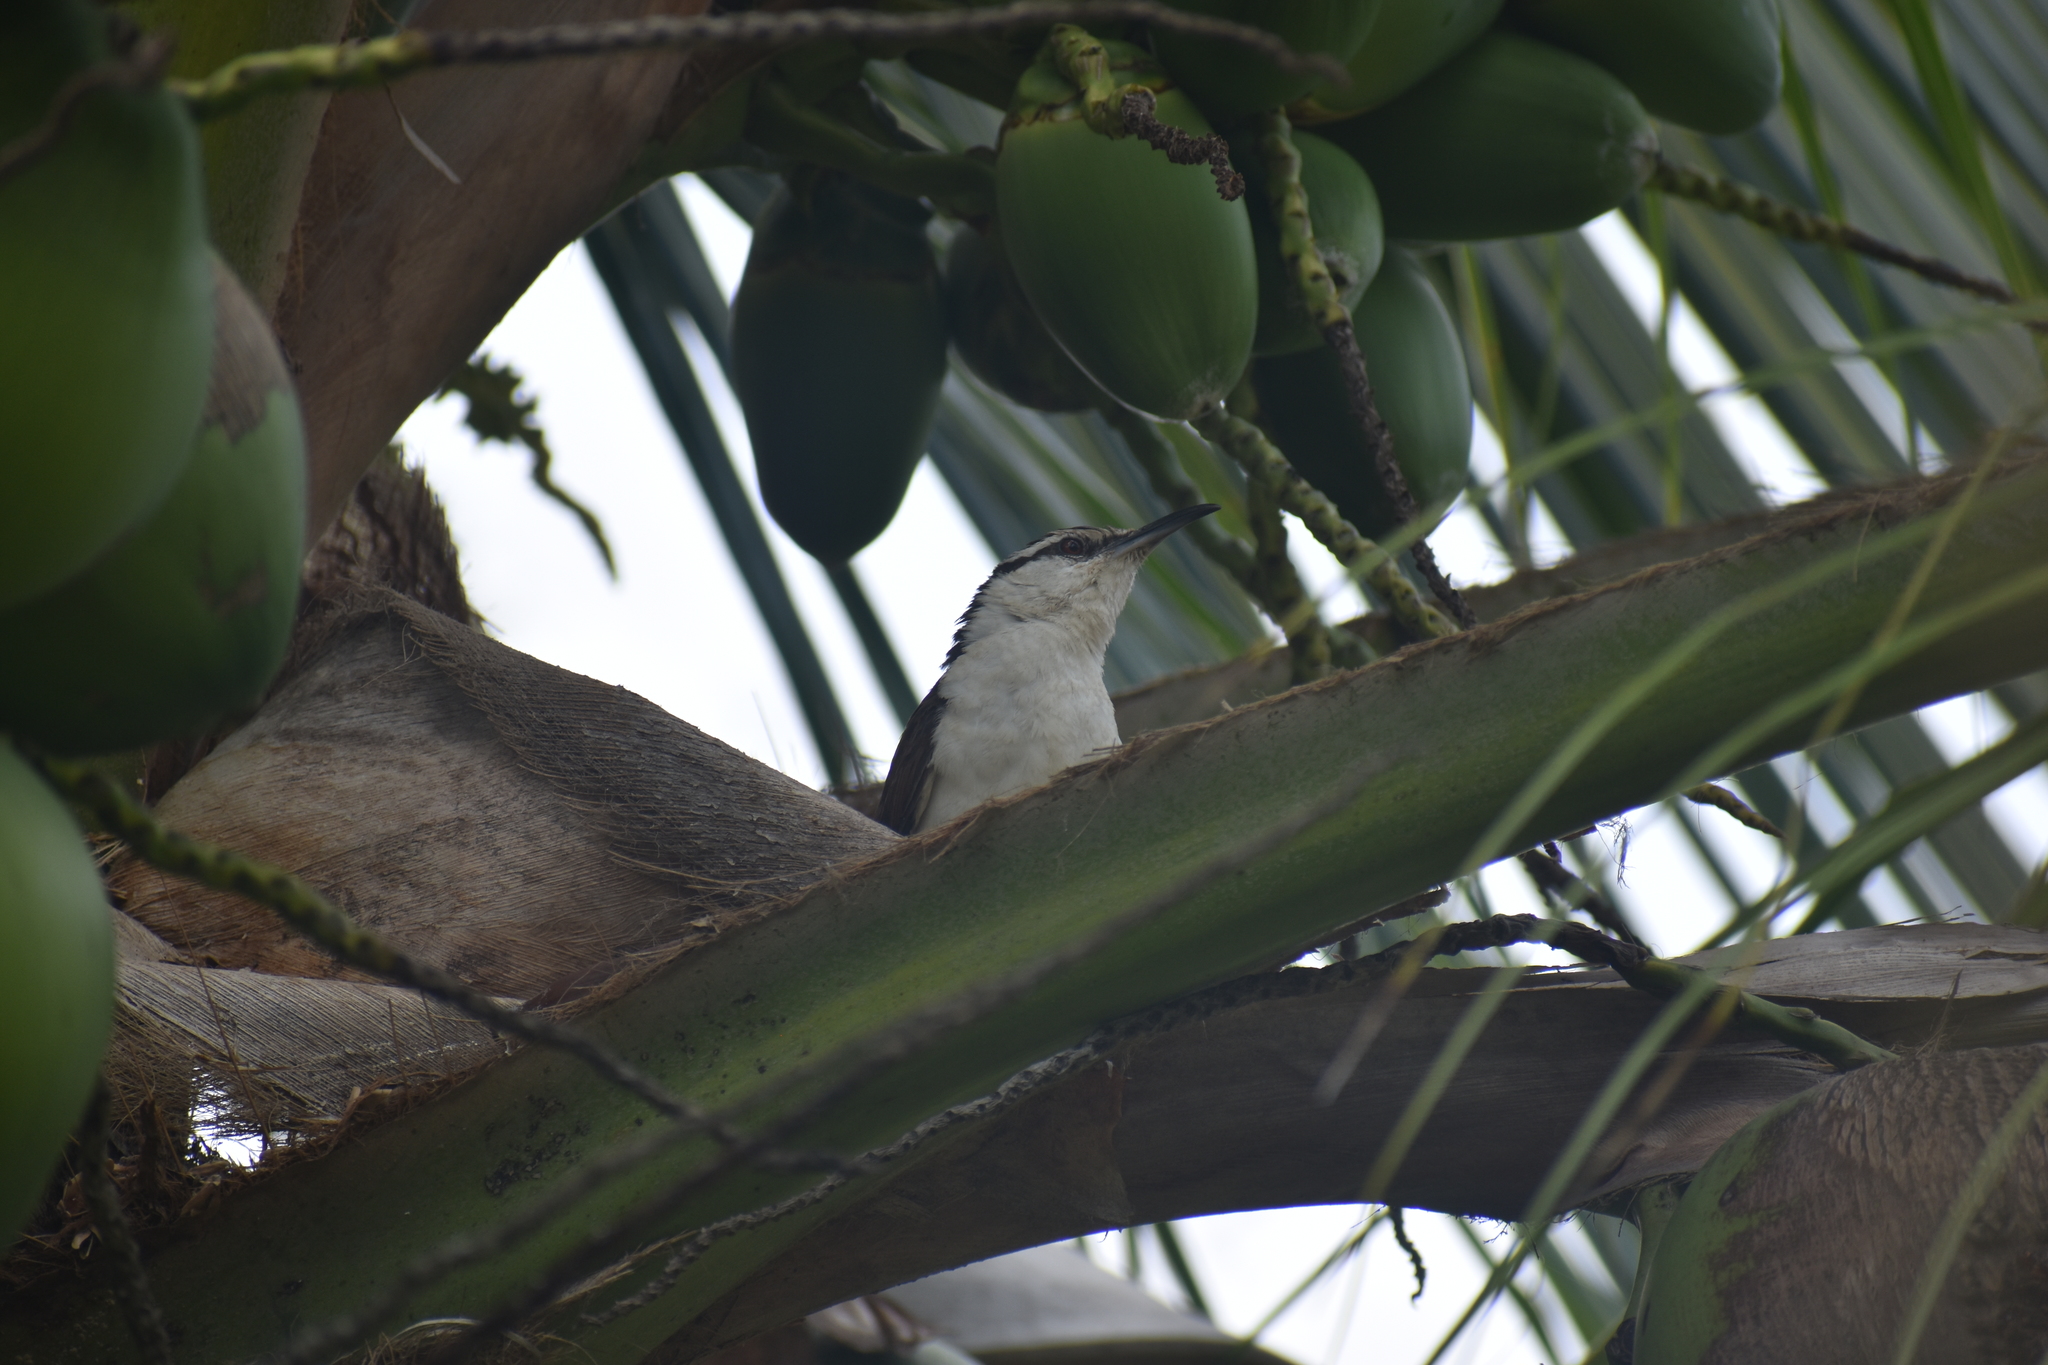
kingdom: Animalia
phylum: Chordata
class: Aves
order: Passeriformes
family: Troglodytidae
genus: Campylorhynchus
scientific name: Campylorhynchus griseus
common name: Bicolored wren
